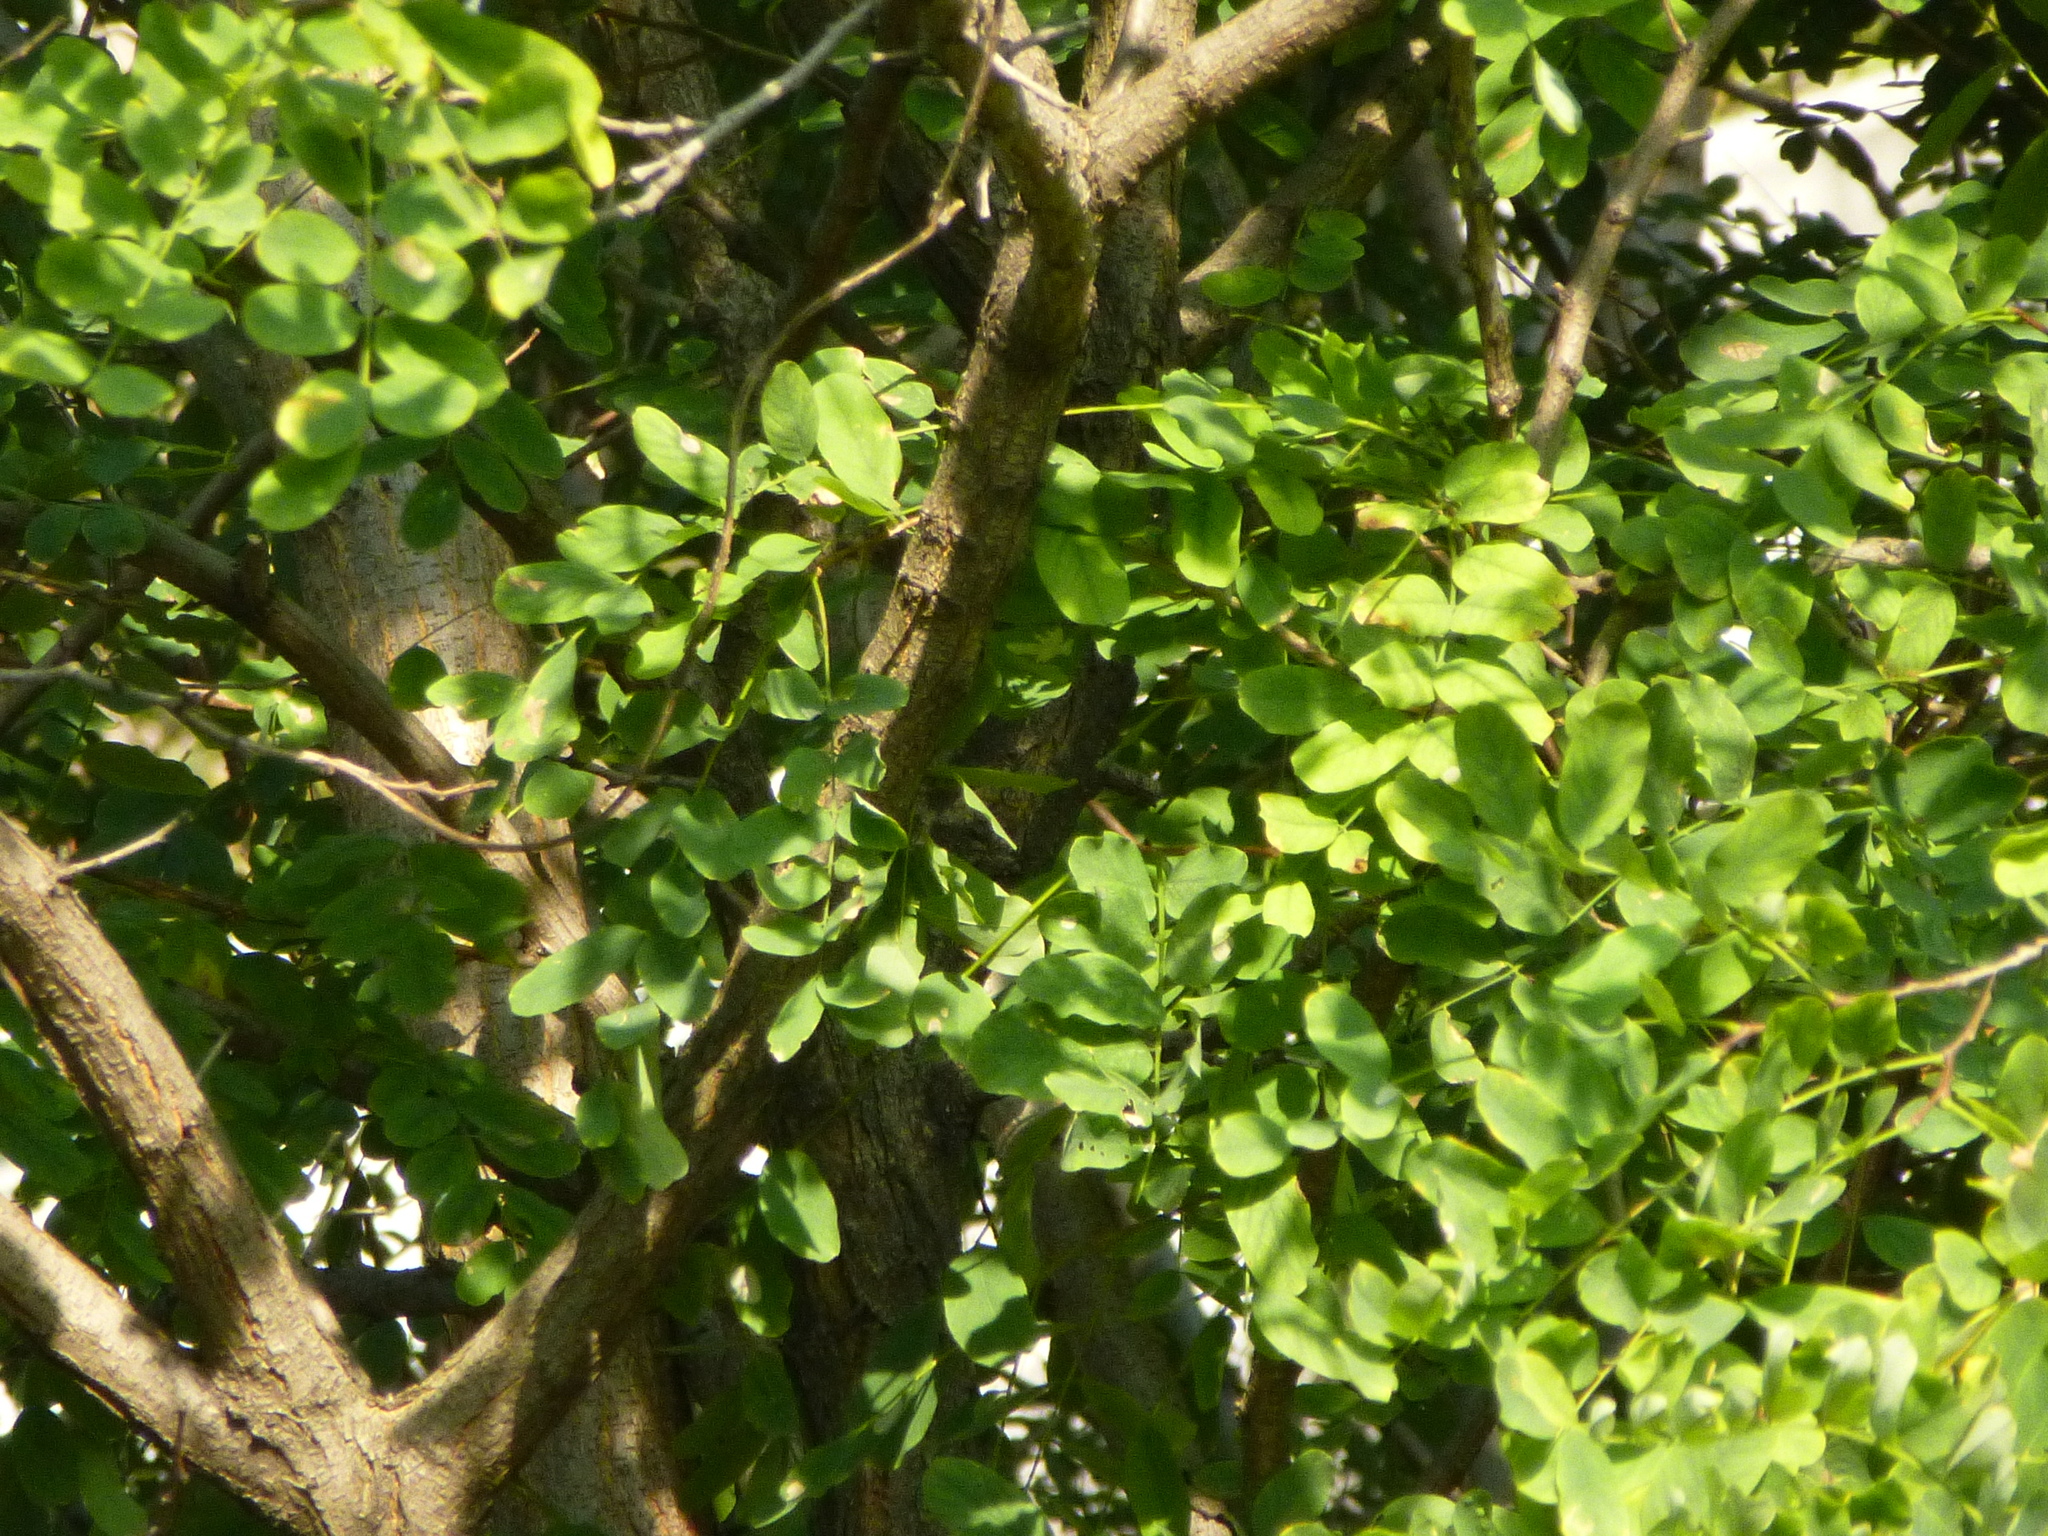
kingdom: Plantae
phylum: Tracheophyta
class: Magnoliopsida
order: Fabales
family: Fabaceae
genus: Robinia
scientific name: Robinia pseudoacacia
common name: Black locust
